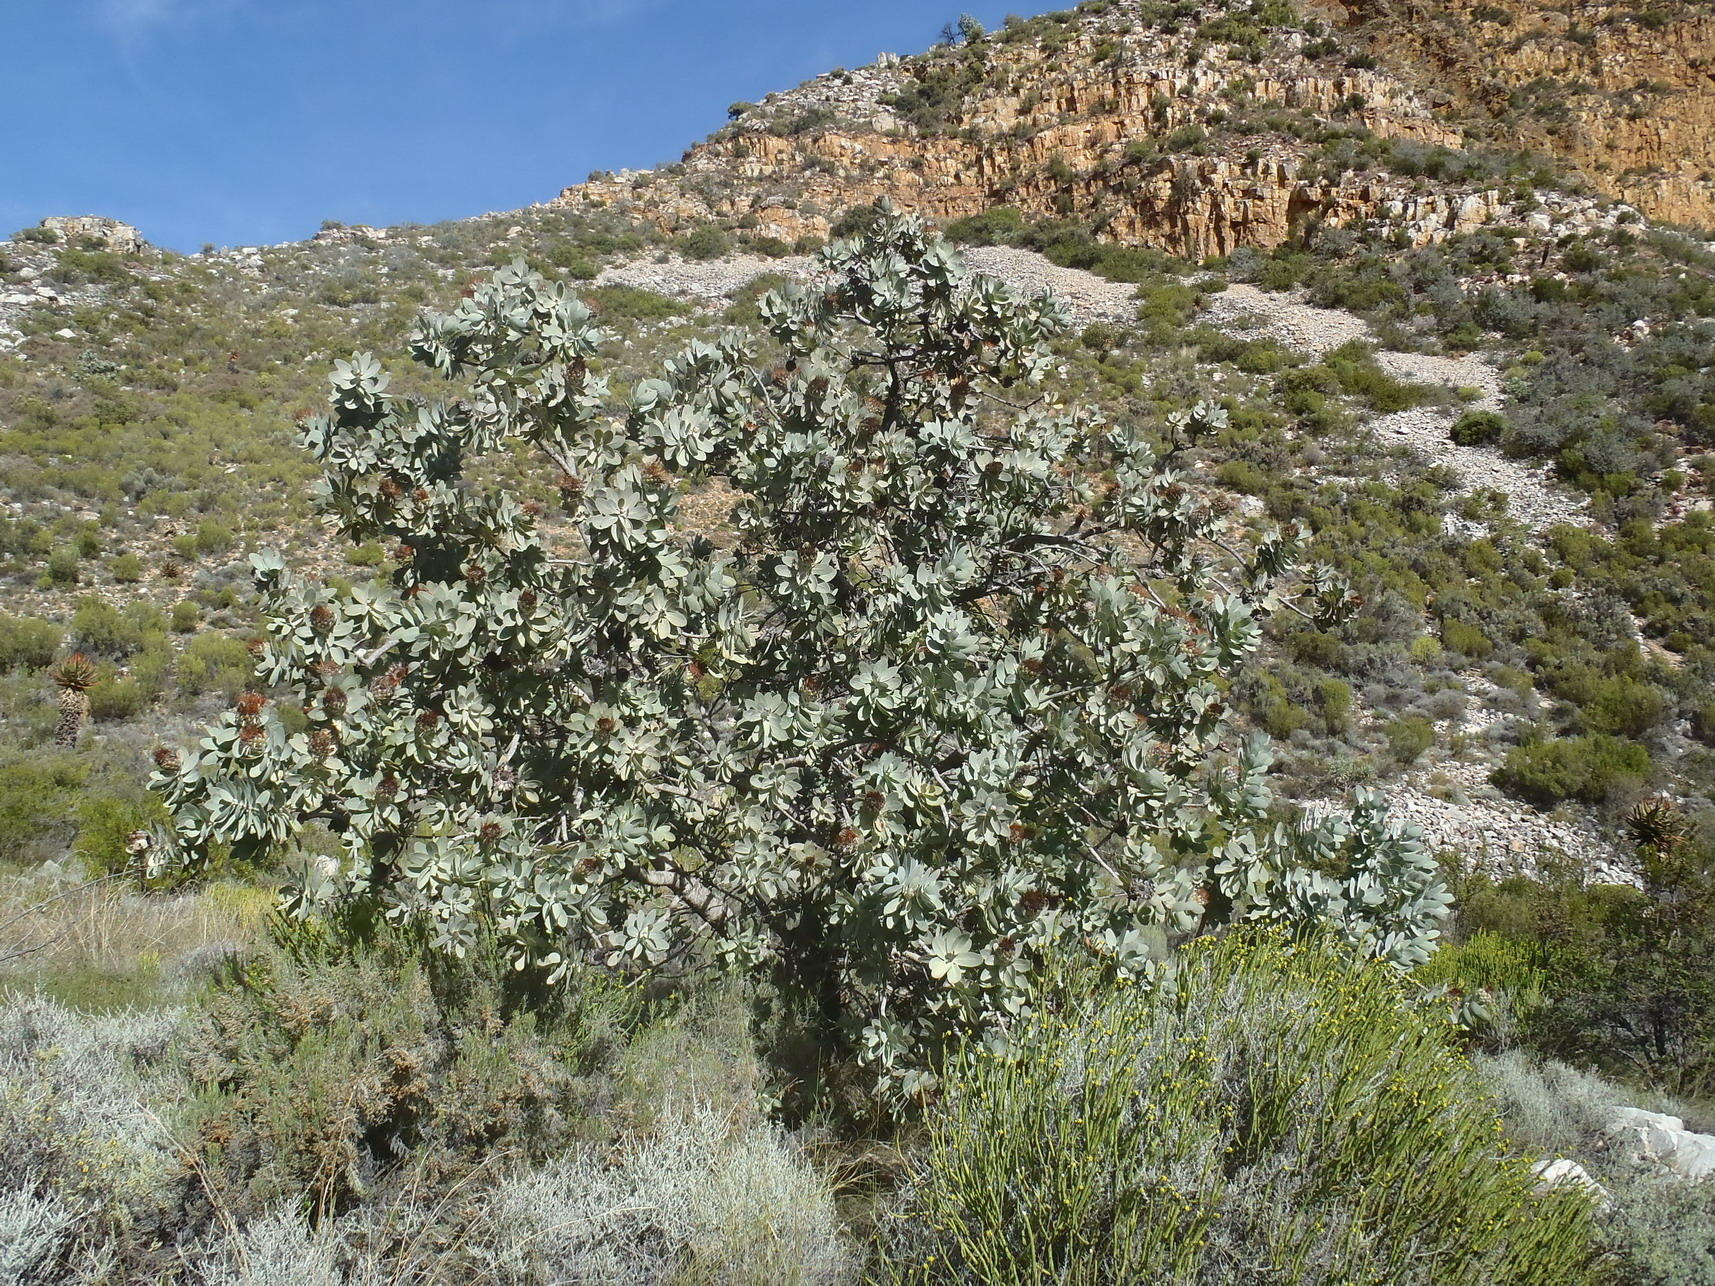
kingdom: Plantae
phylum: Tracheophyta
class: Magnoliopsida
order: Proteales
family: Proteaceae
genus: Protea
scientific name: Protea nitida
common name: Tree protea
